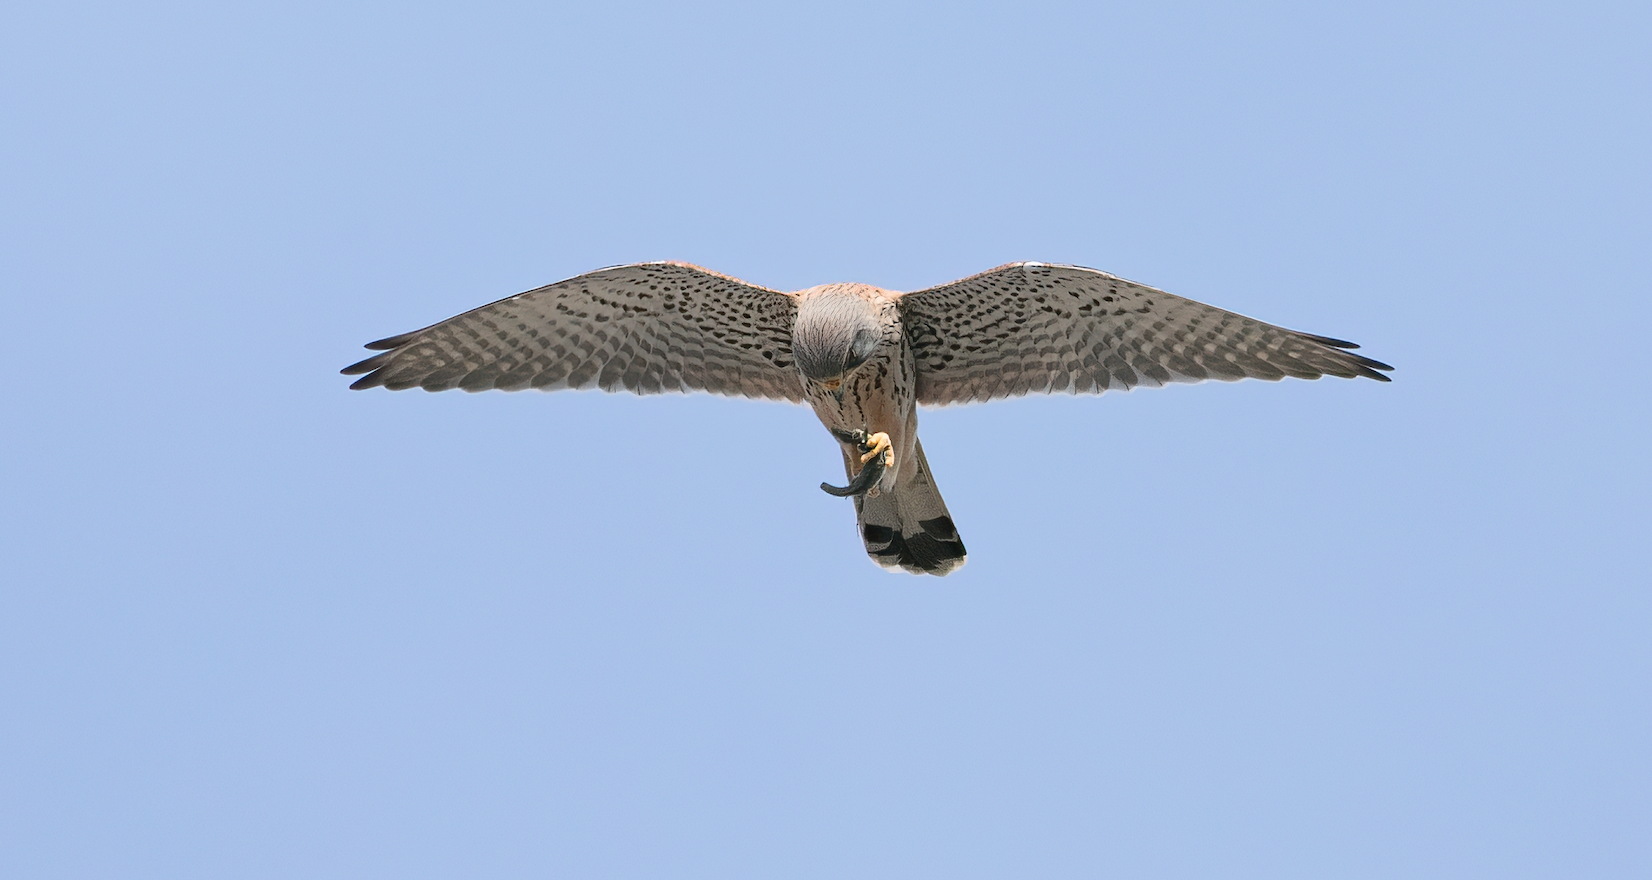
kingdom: Animalia
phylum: Chordata
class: Aves
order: Falconiformes
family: Falconidae
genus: Falco
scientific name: Falco tinnunculus
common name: Common kestrel
